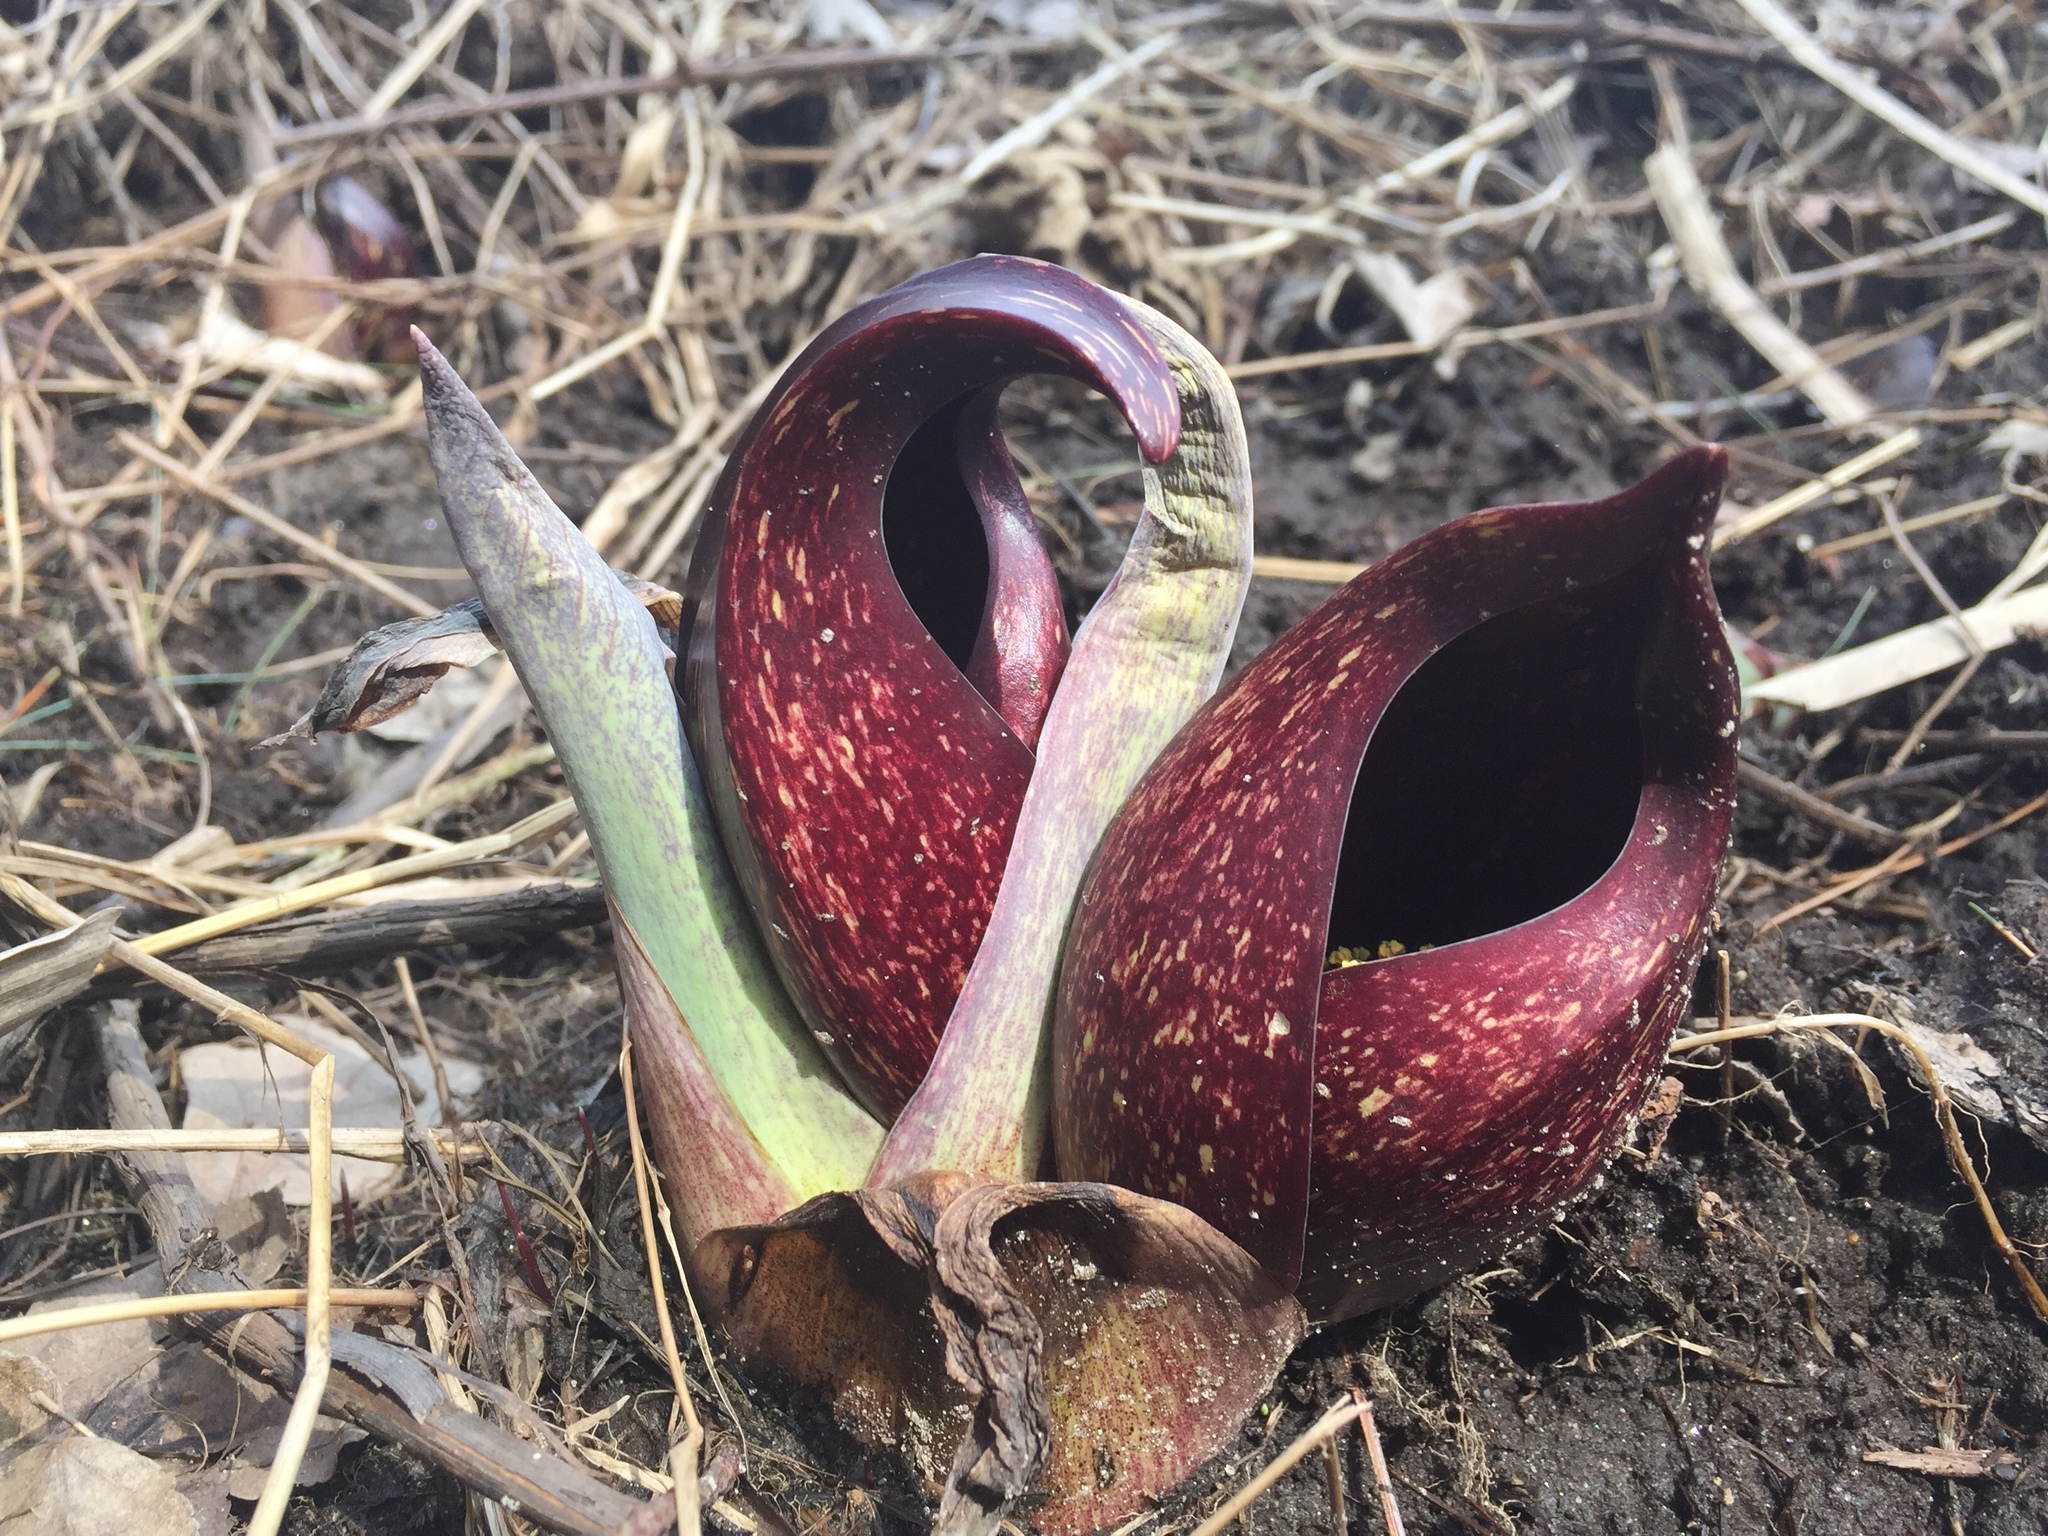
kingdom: Plantae
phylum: Tracheophyta
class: Liliopsida
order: Alismatales
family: Araceae
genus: Symplocarpus
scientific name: Symplocarpus foetidus
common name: Eastern skunk cabbage
